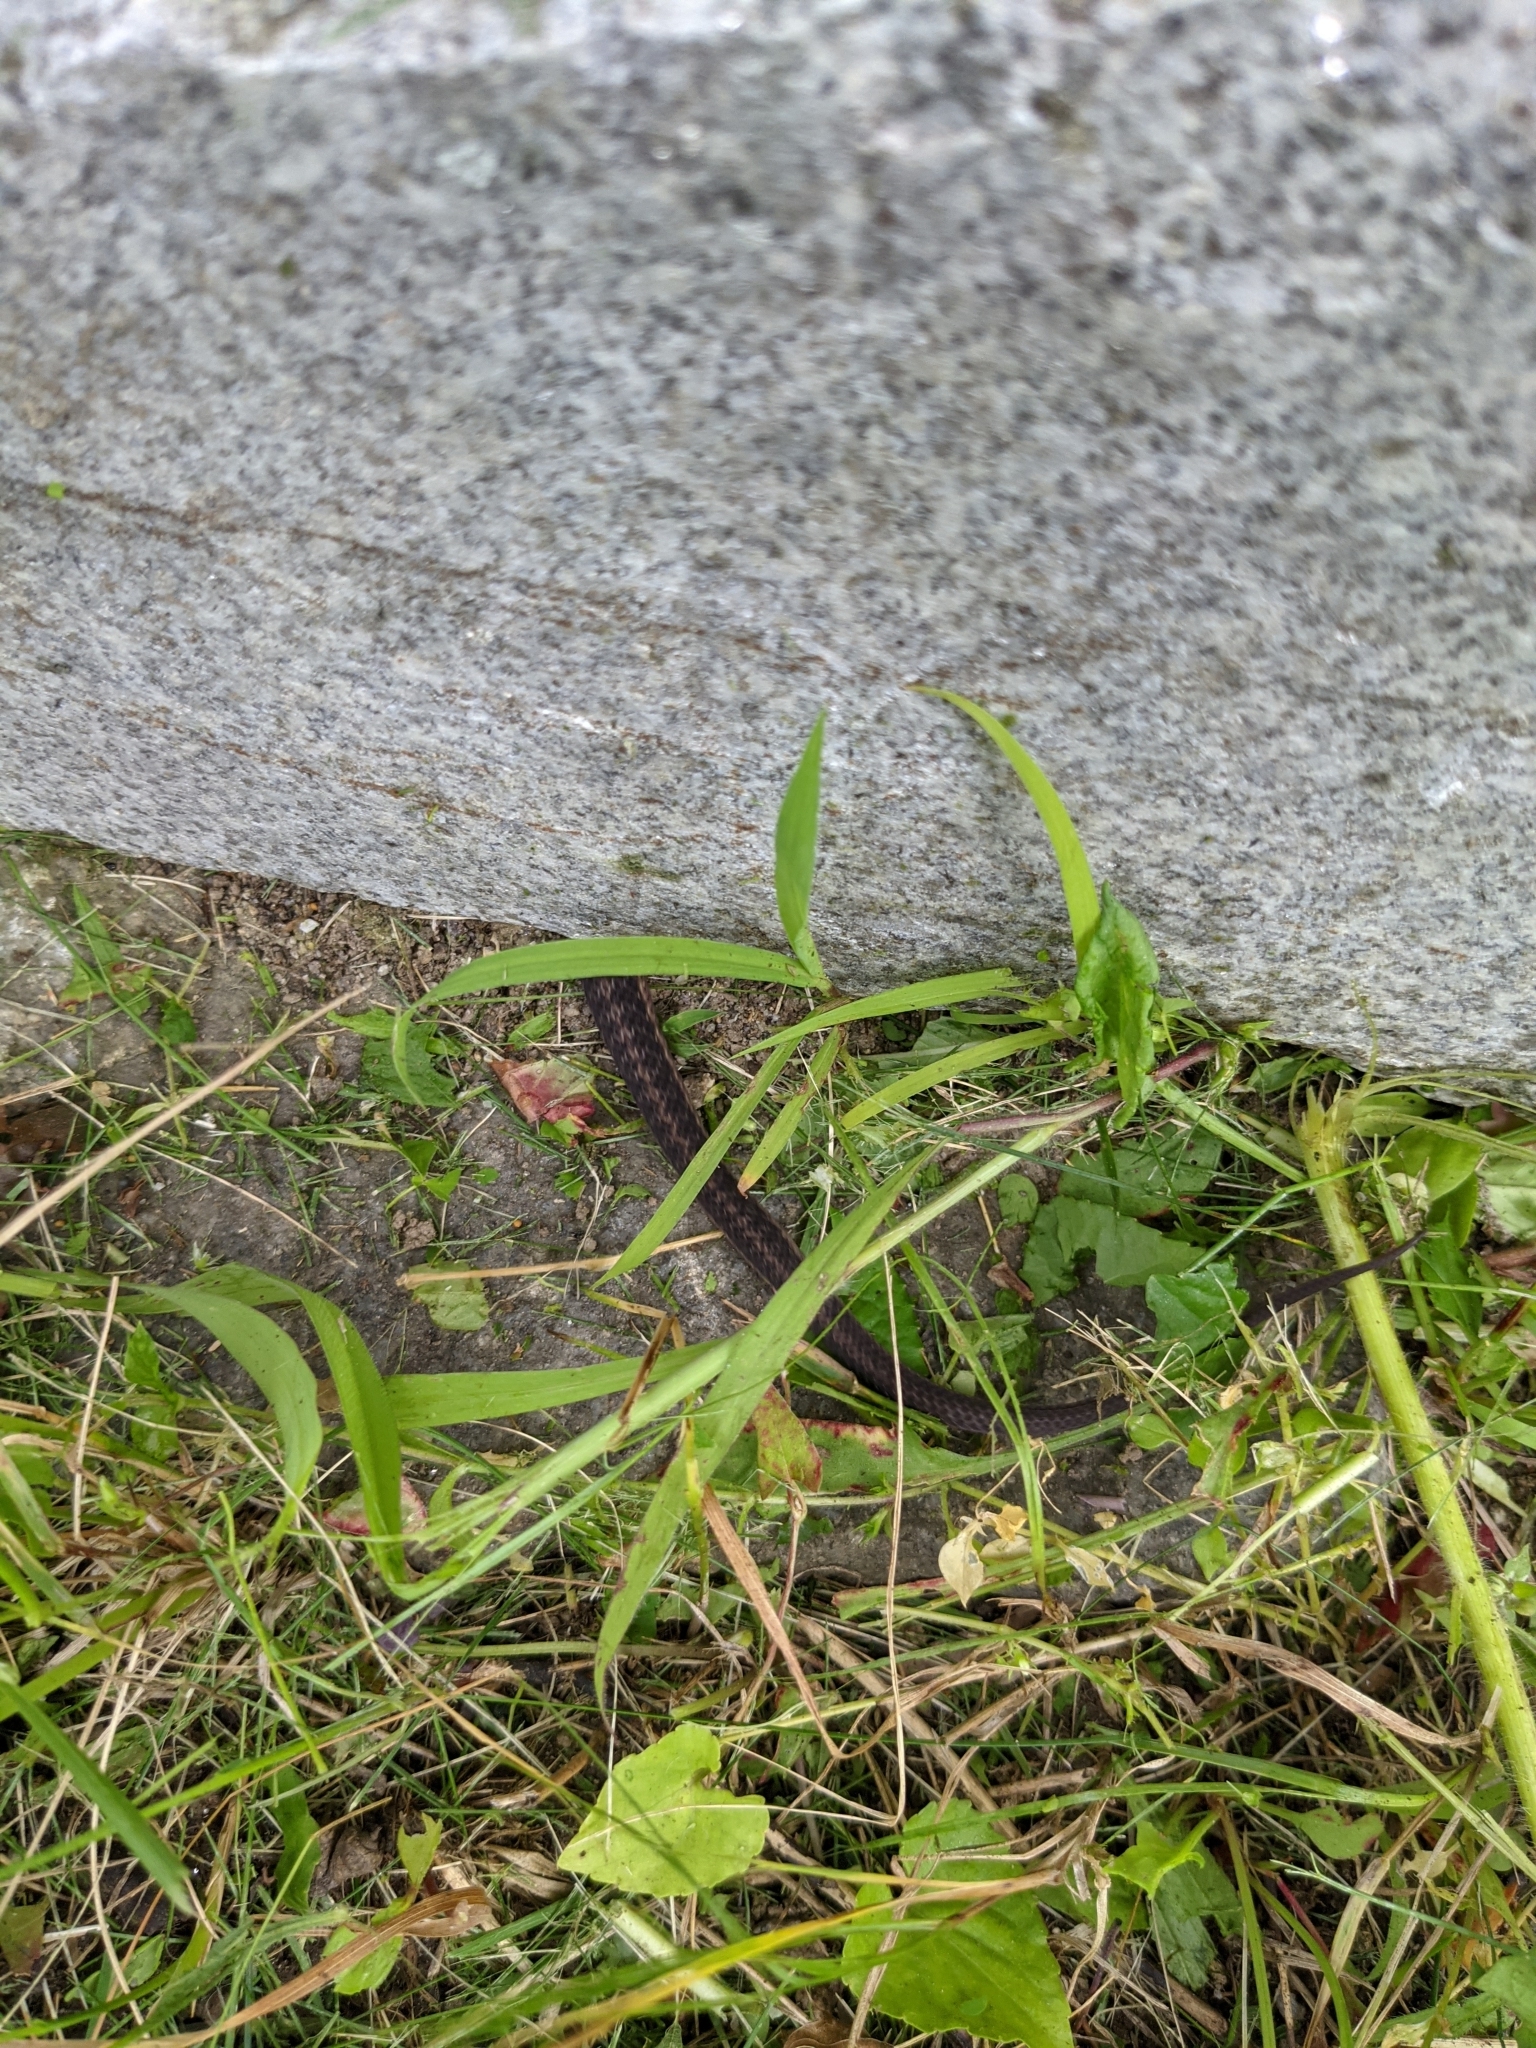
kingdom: Animalia
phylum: Chordata
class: Squamata
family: Colubridae
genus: Thamnophis
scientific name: Thamnophis sirtalis
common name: Common garter snake
